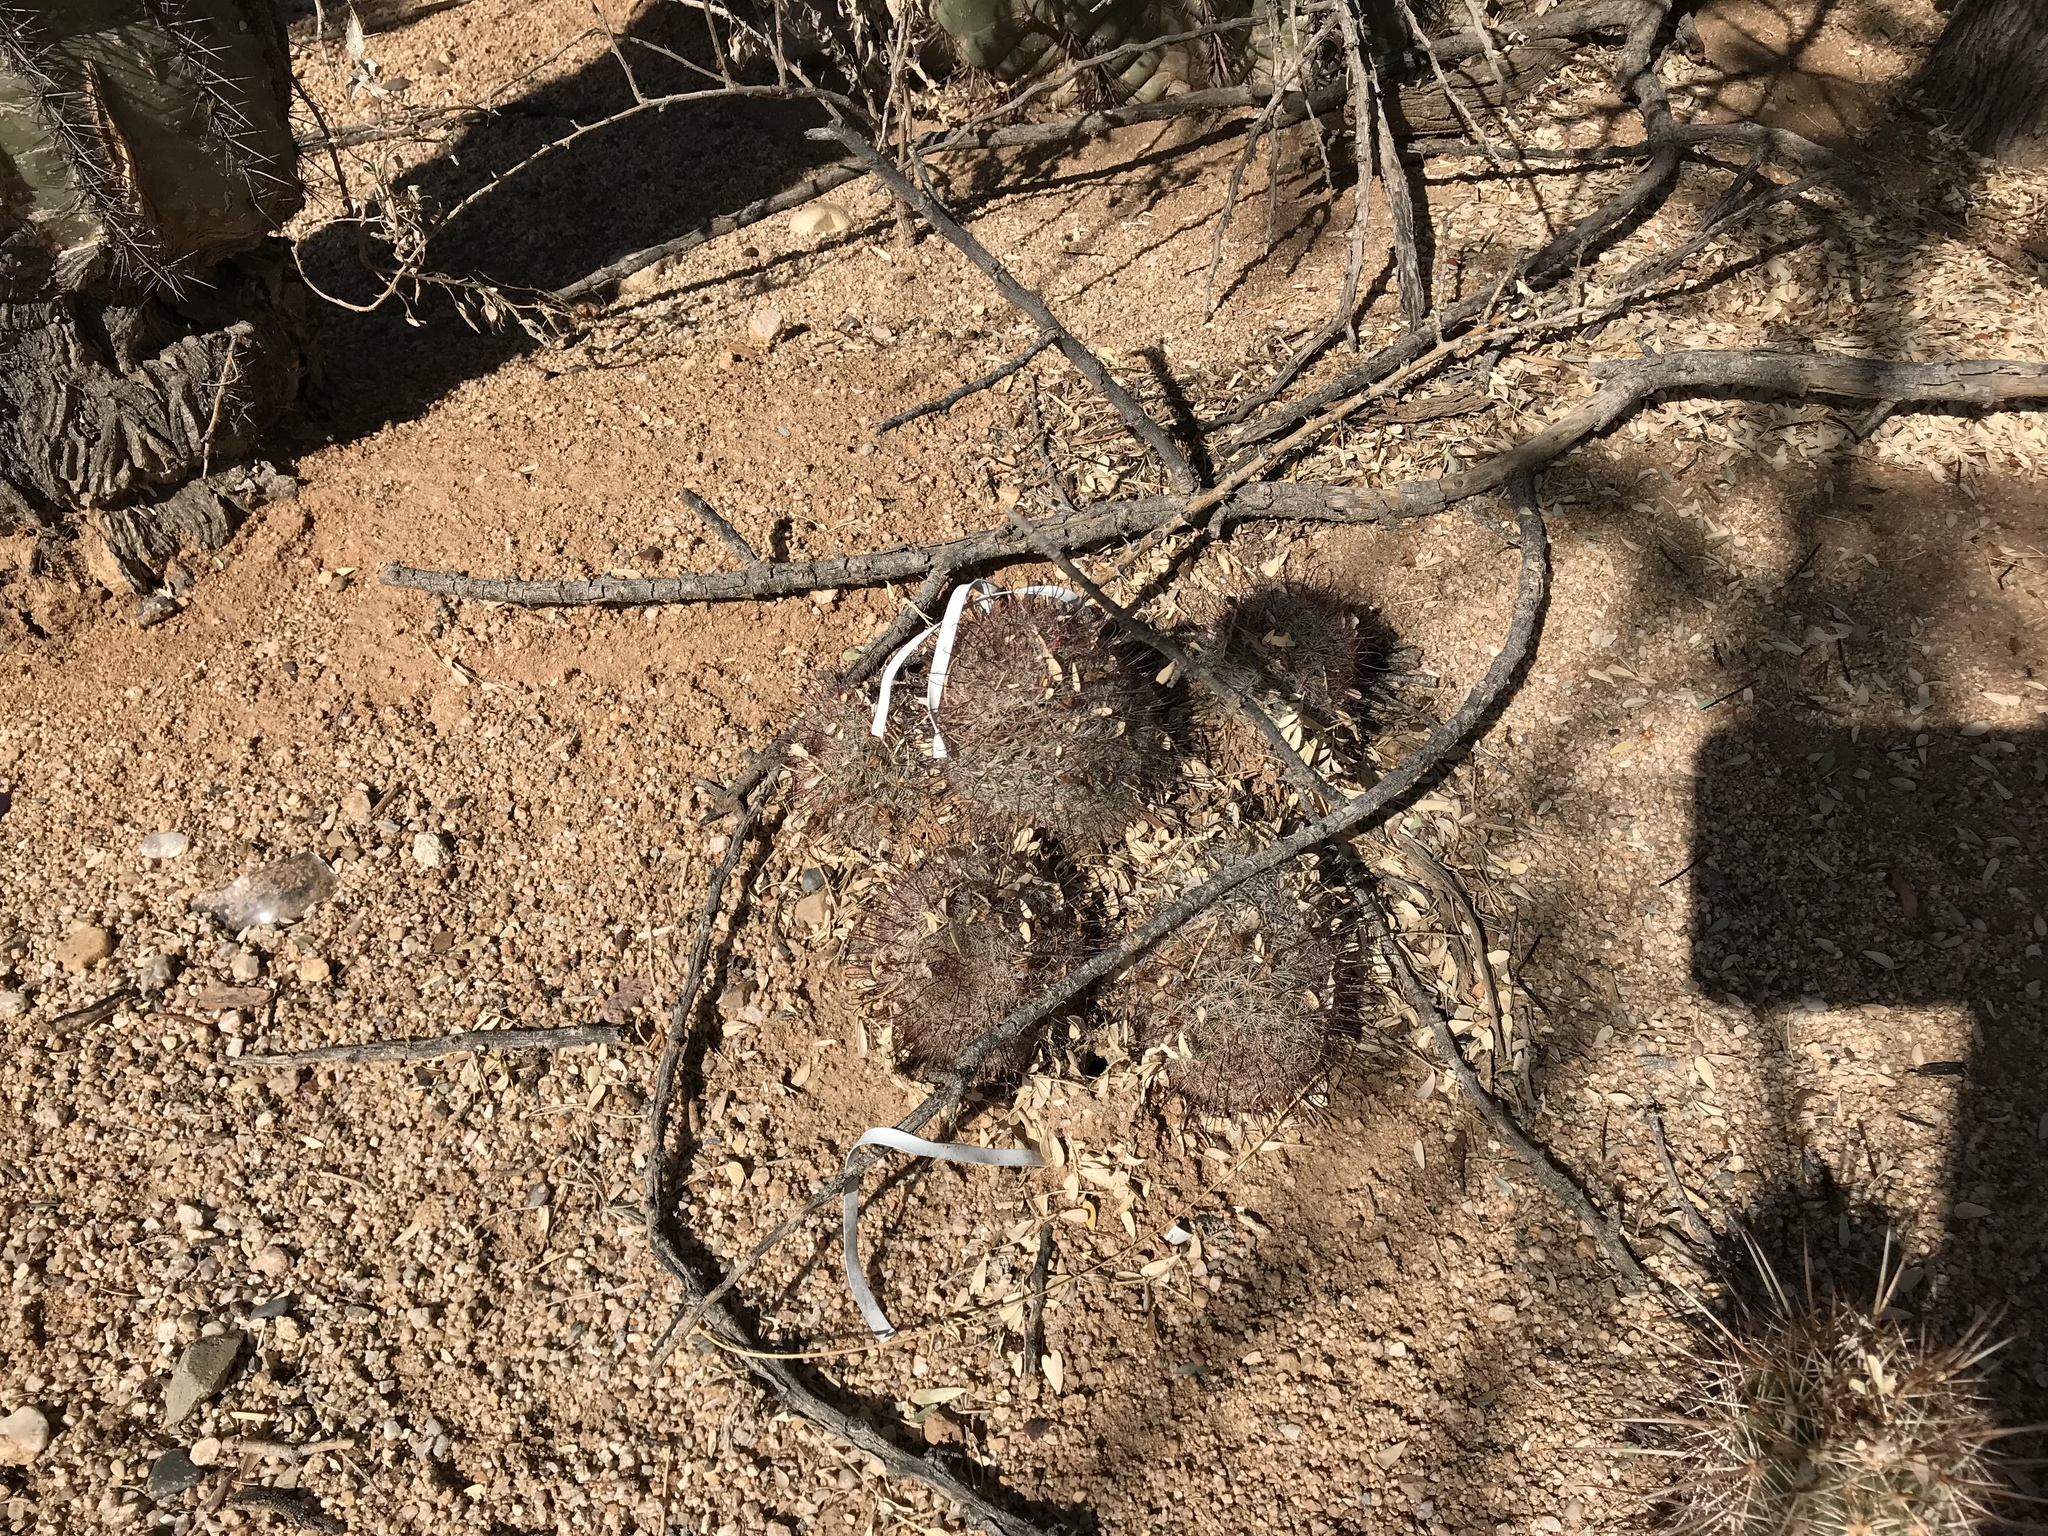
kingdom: Plantae
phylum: Tracheophyta
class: Magnoliopsida
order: Caryophyllales
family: Cactaceae
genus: Cochemiea
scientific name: Cochemiea grahamii
